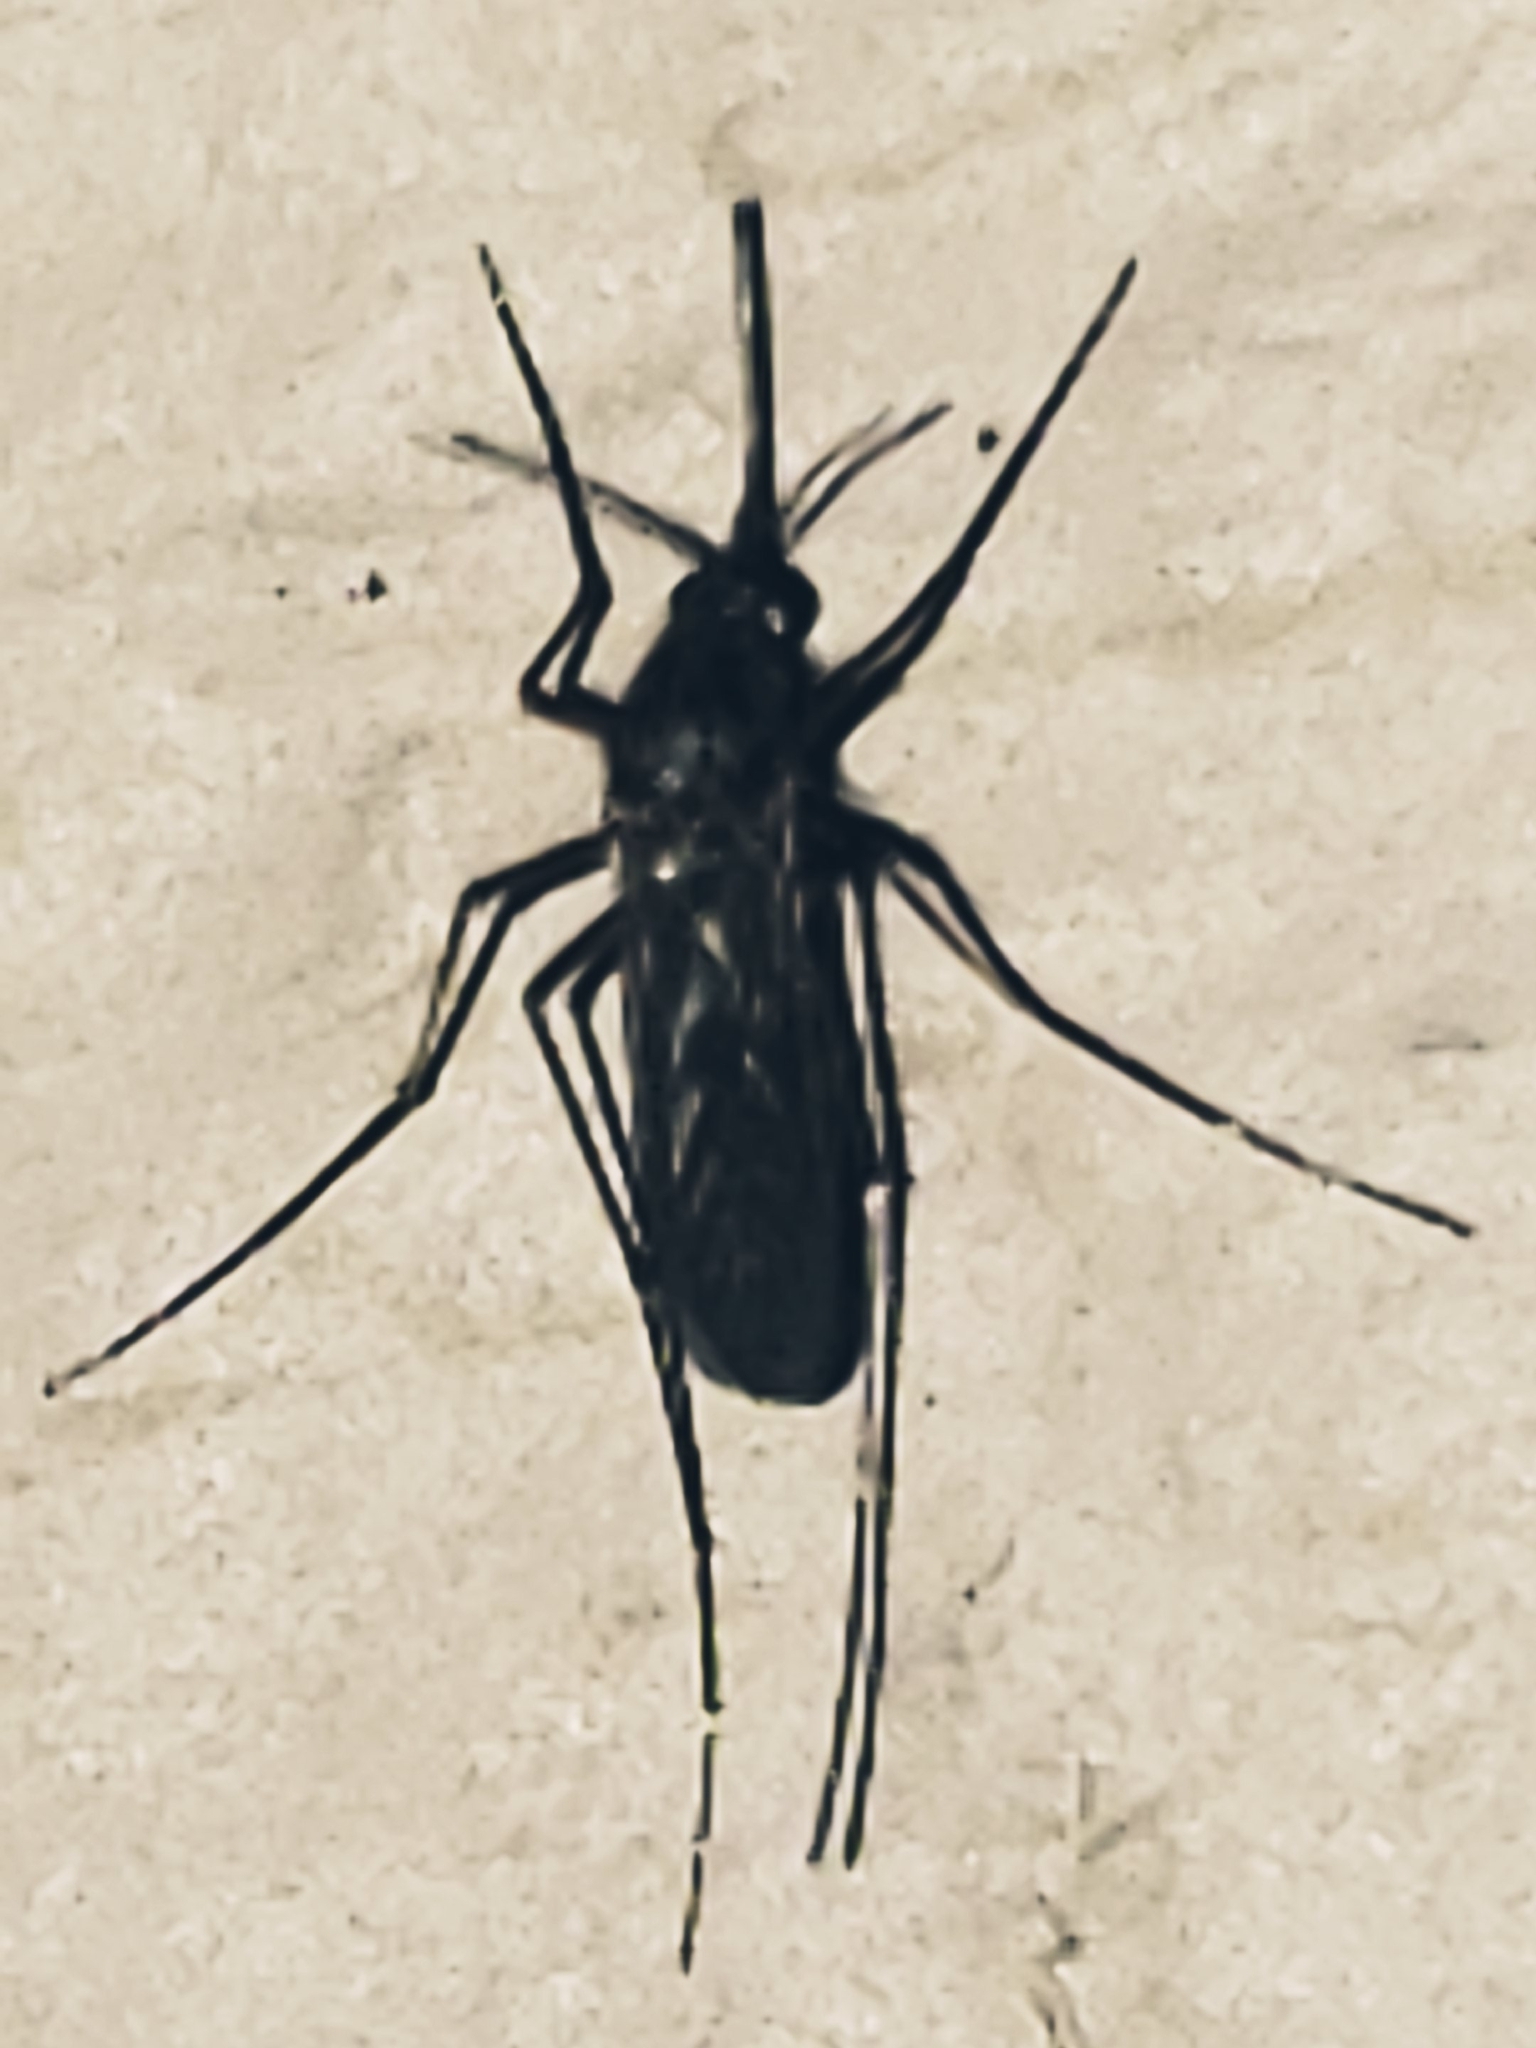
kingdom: Animalia
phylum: Arthropoda
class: Insecta
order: Diptera
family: Culicidae
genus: Aedes
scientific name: Aedes vexans
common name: Inland floodwater mosquito
